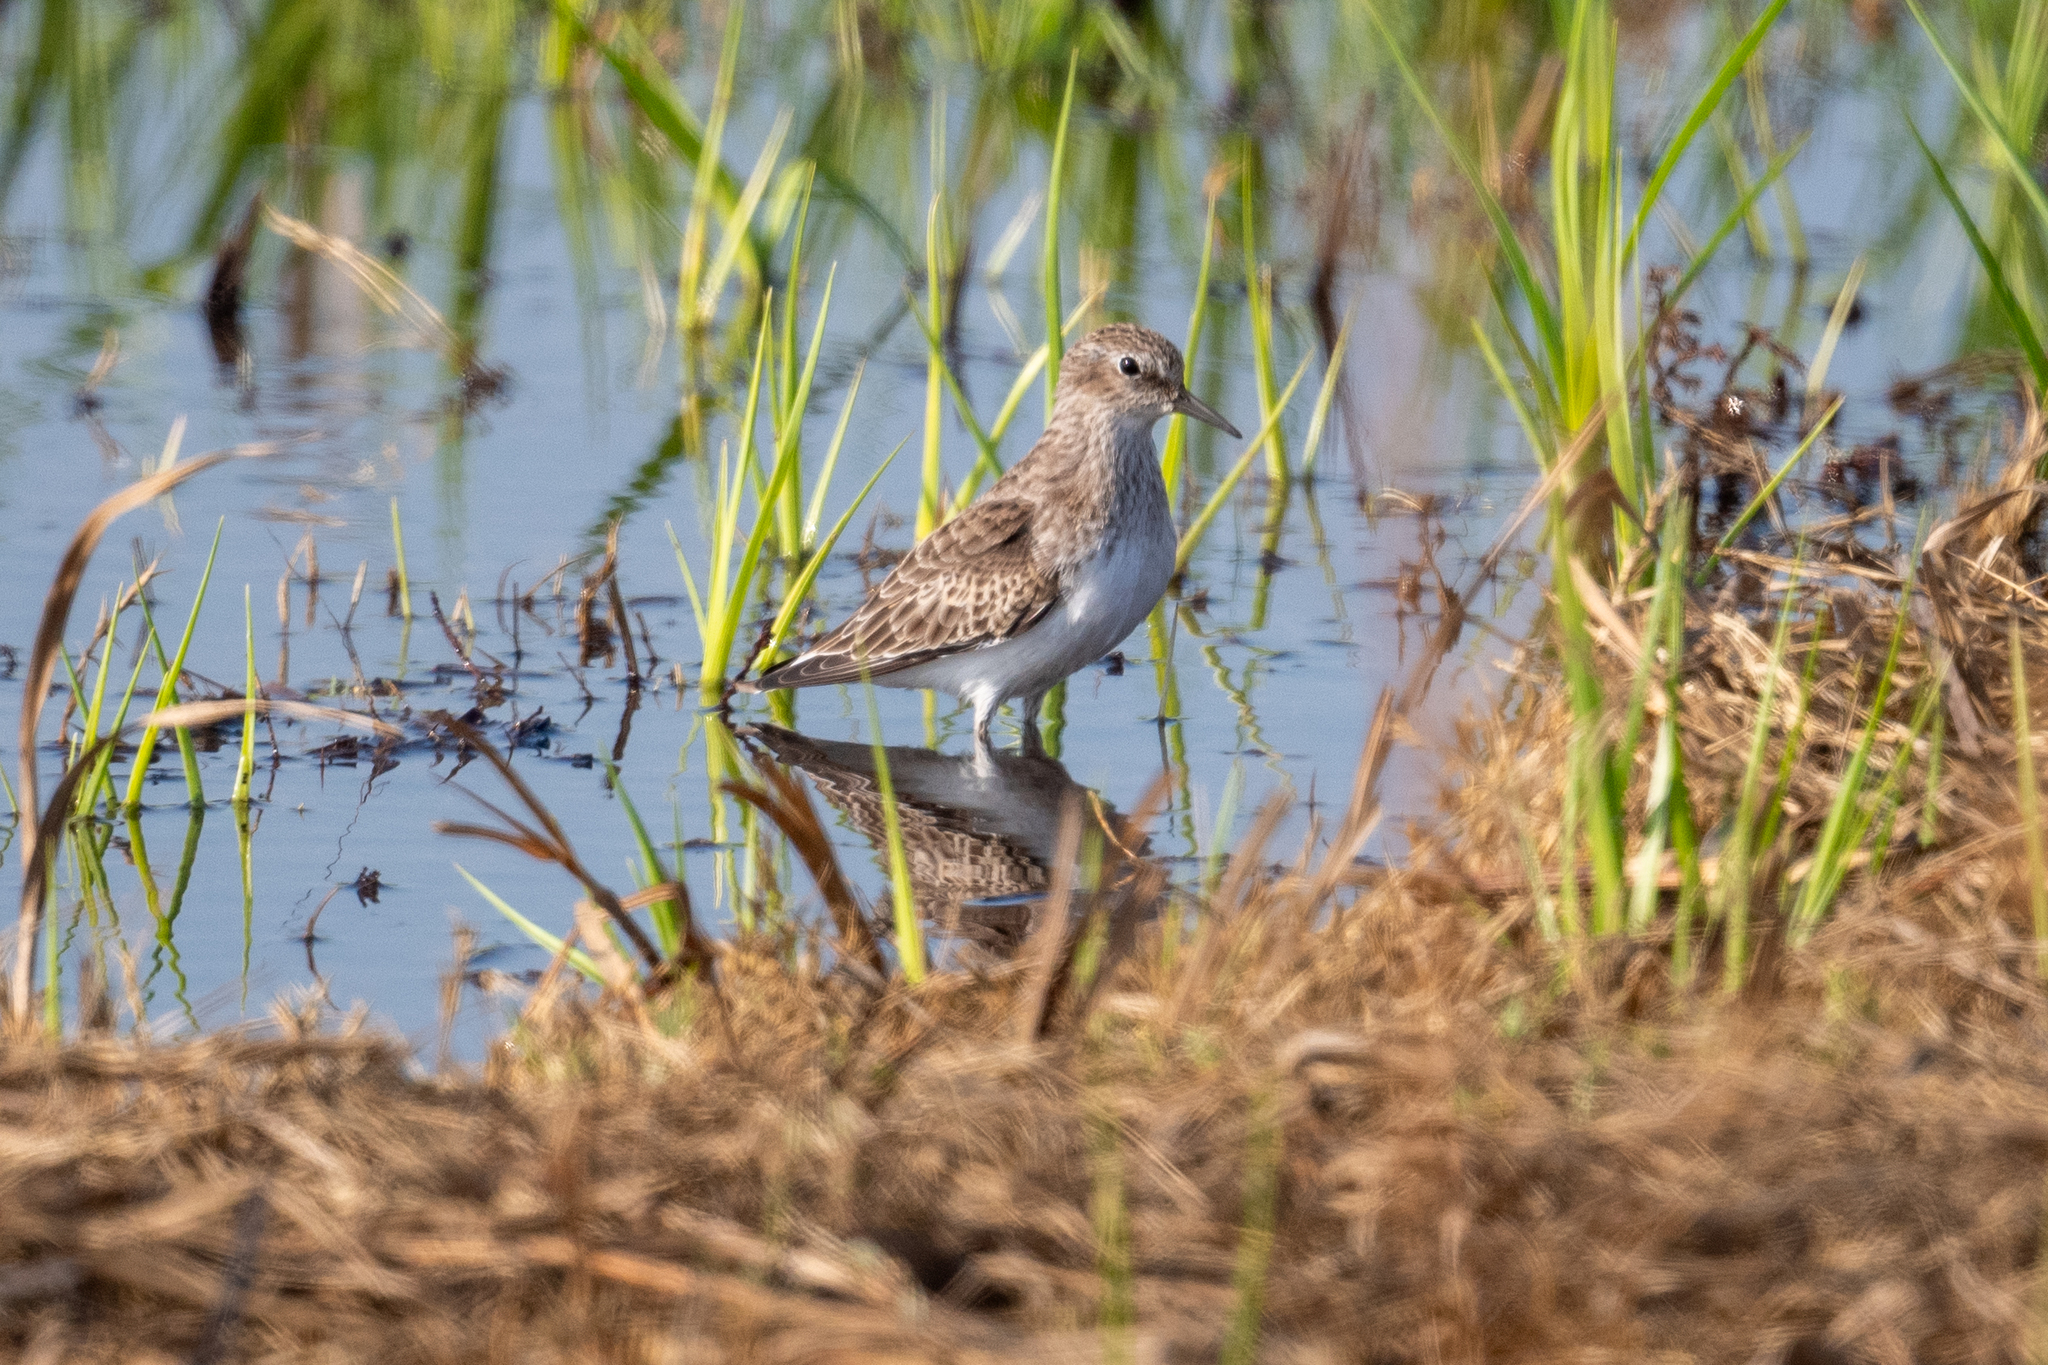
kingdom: Animalia
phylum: Chordata
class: Aves
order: Charadriiformes
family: Scolopacidae
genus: Calidris
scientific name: Calidris minutilla
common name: Least sandpiper
